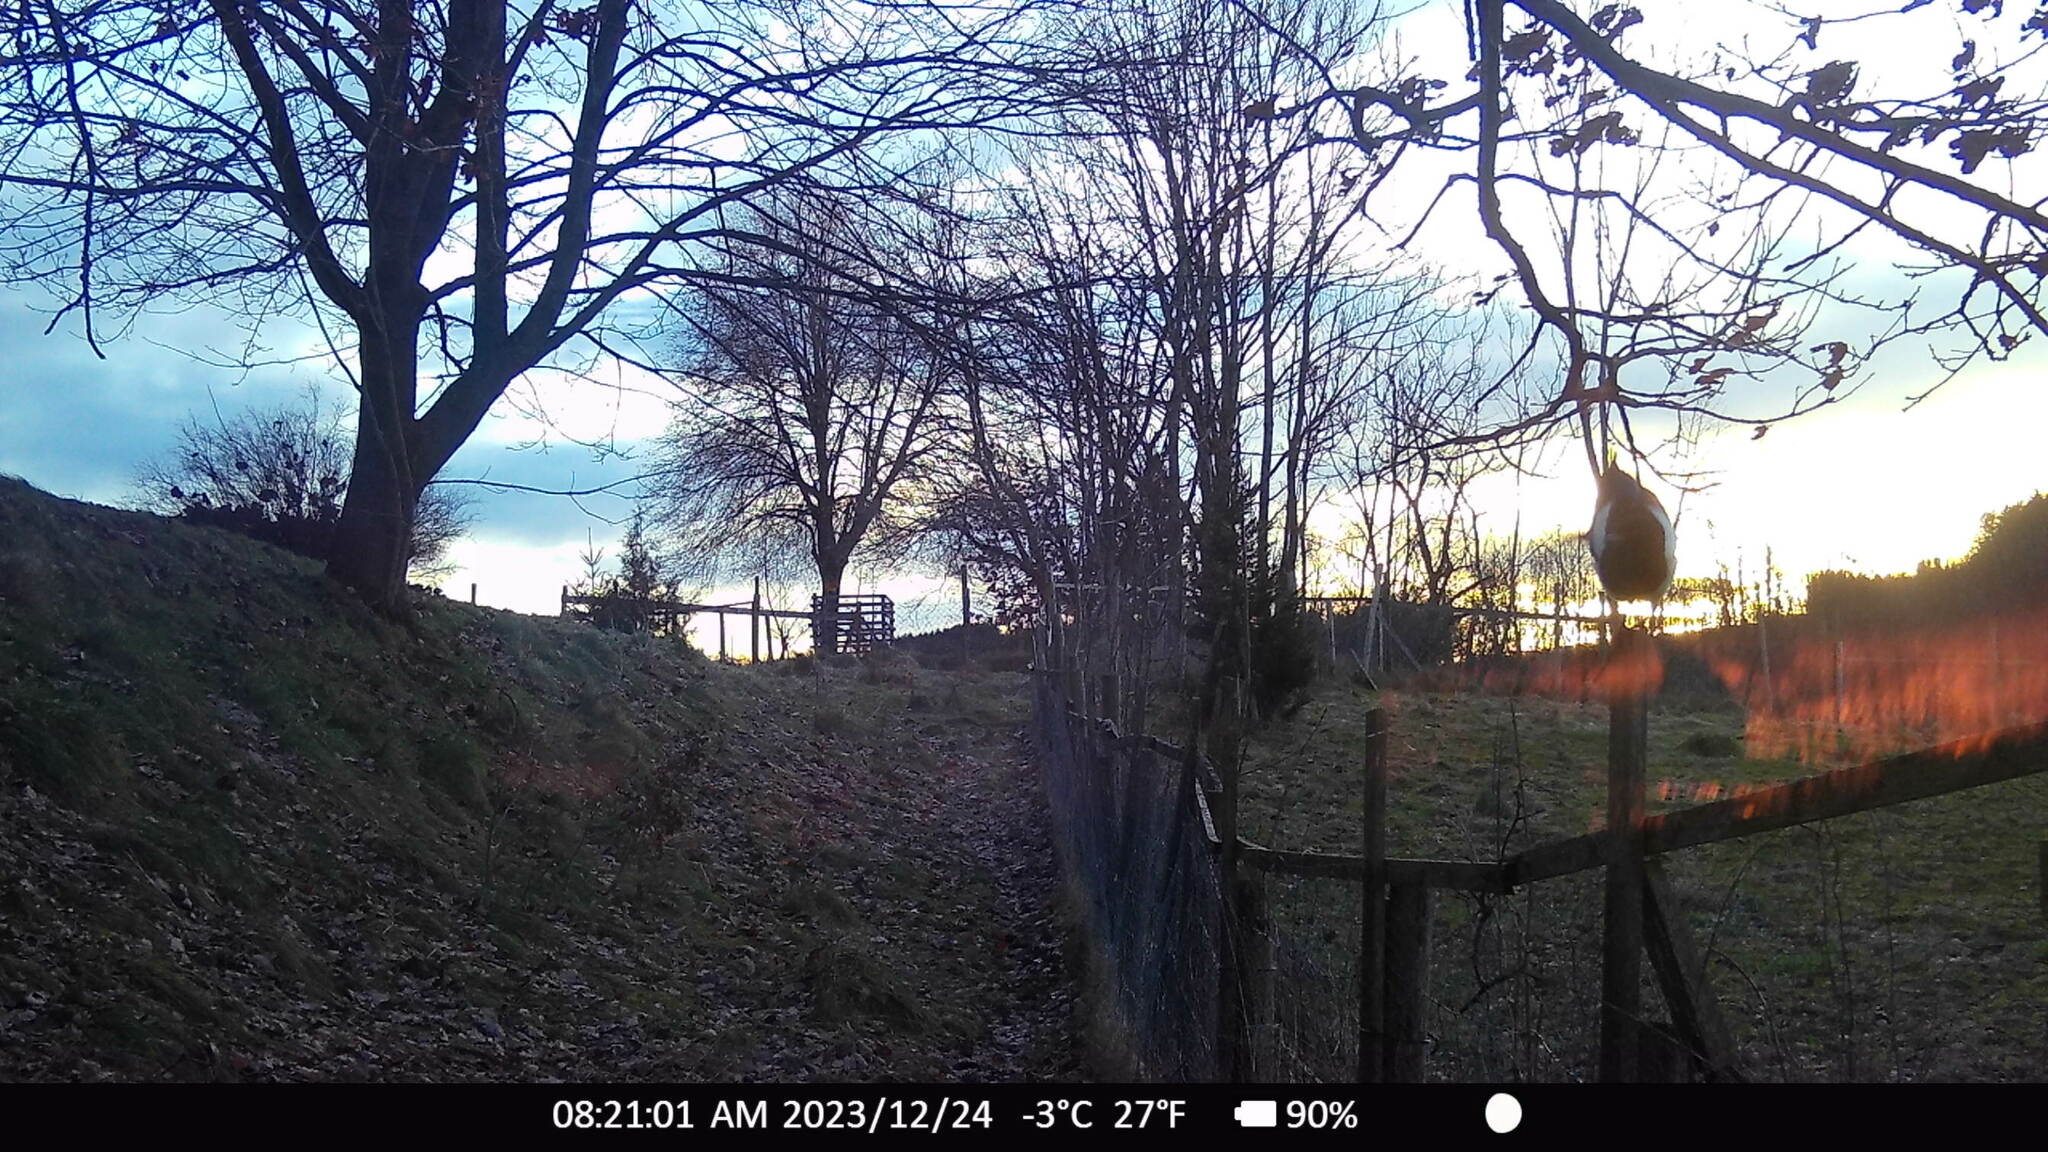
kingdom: Animalia
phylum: Chordata
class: Aves
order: Passeriformes
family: Corvidae
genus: Pica
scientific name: Pica pica
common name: Eurasian magpie
